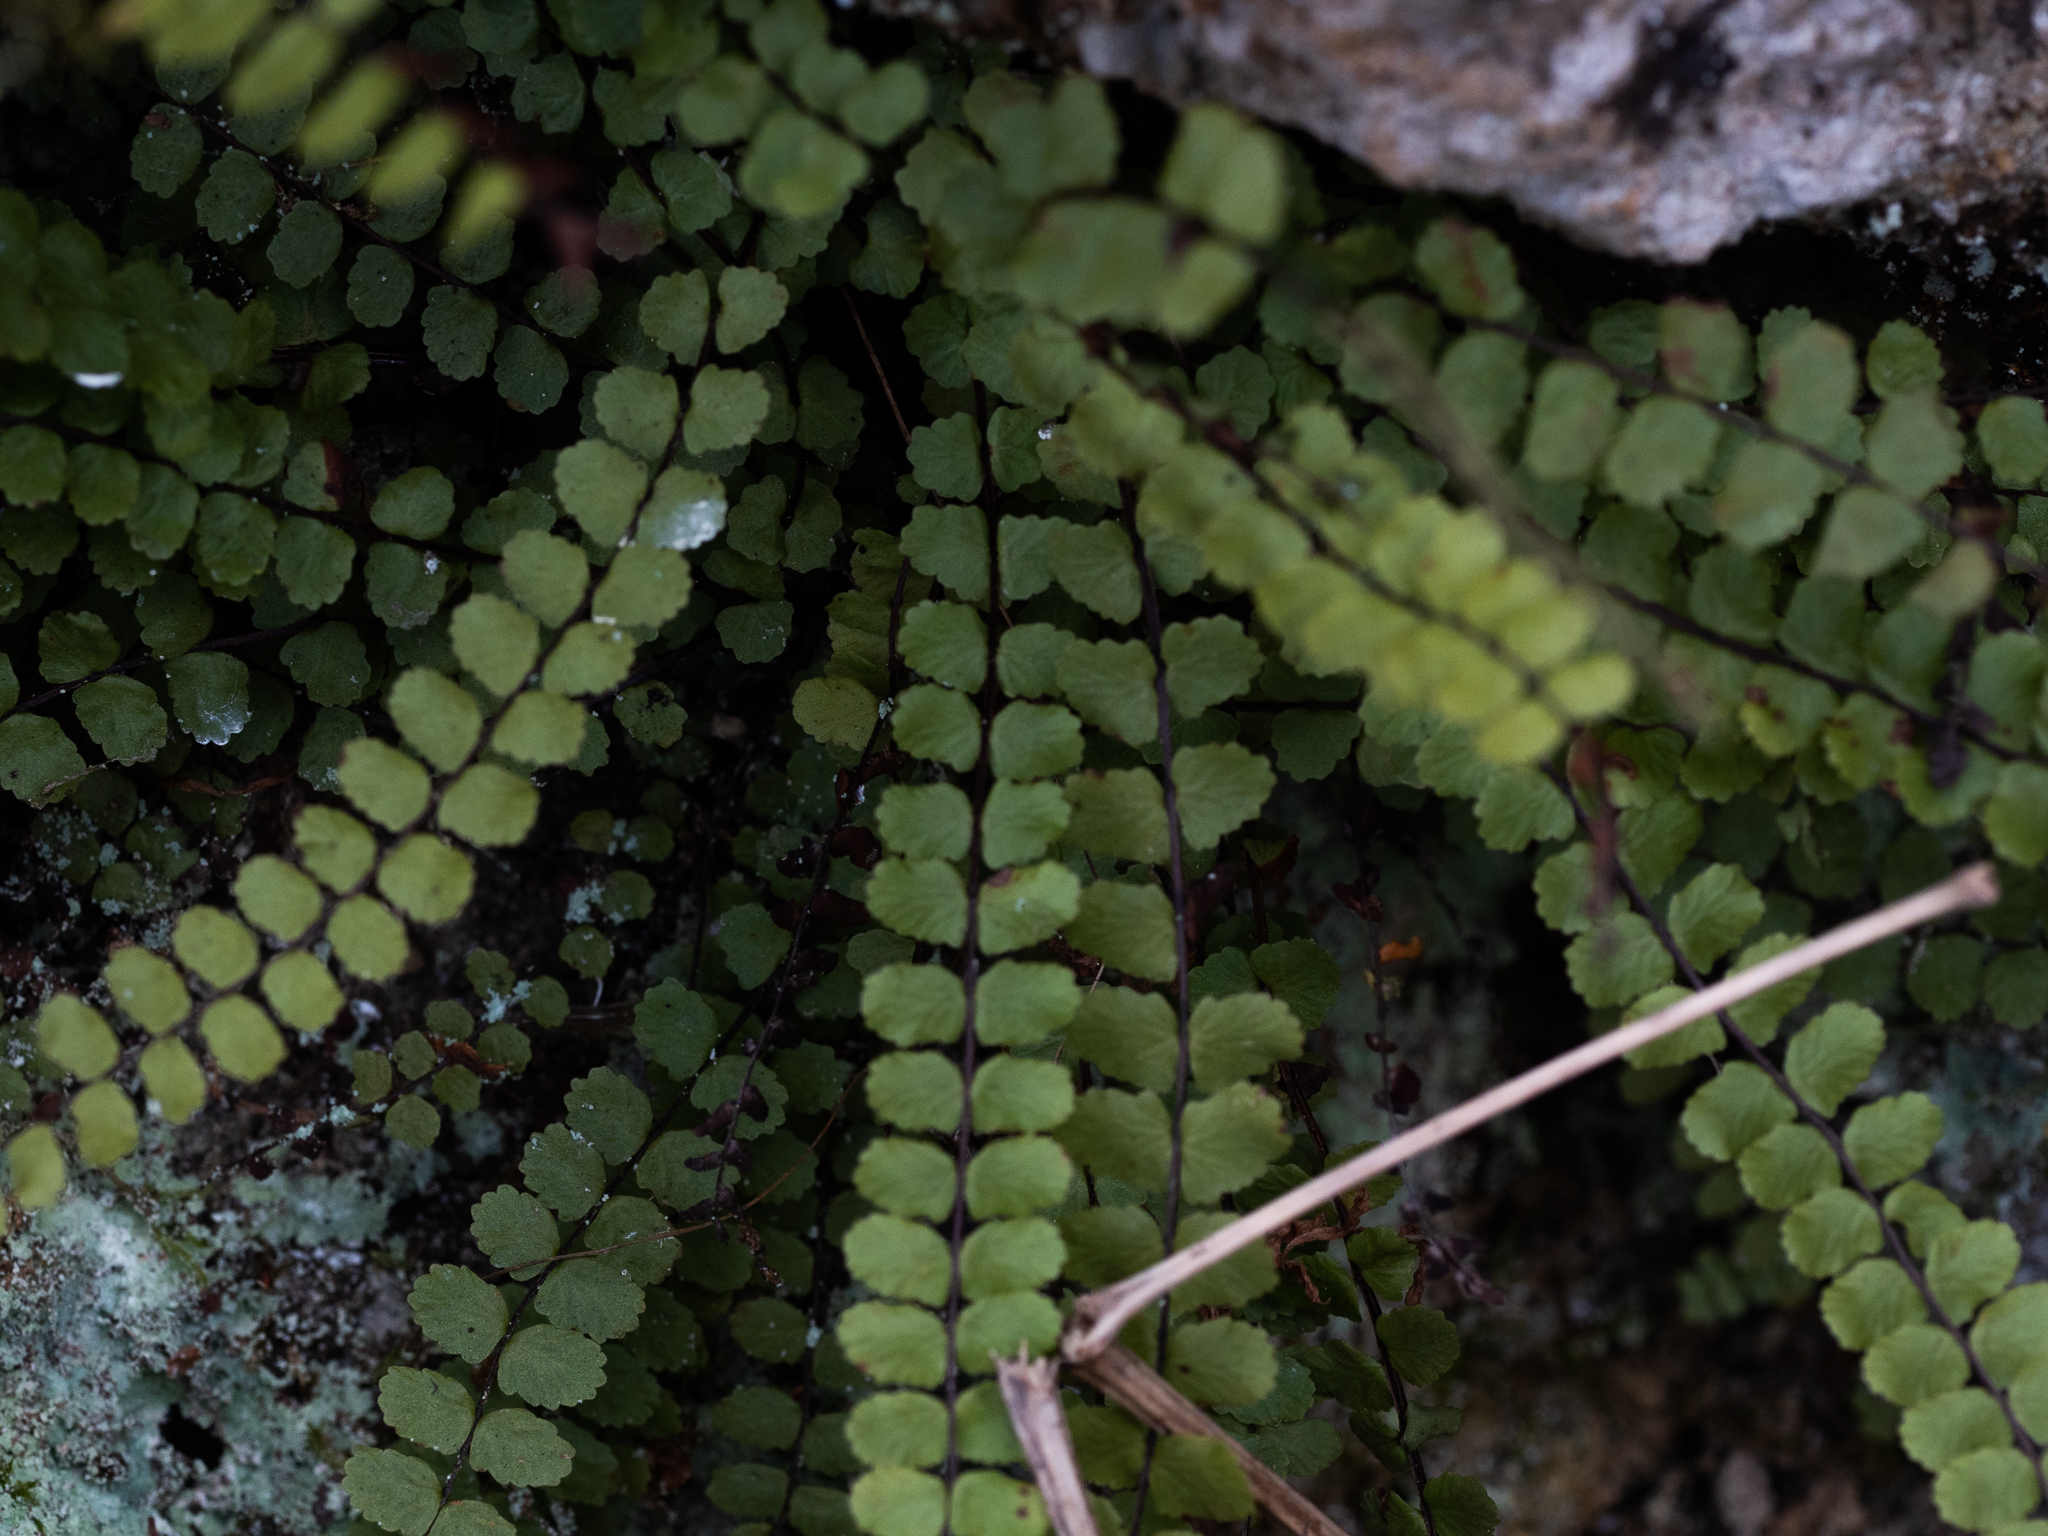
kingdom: Plantae
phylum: Tracheophyta
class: Polypodiopsida
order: Polypodiales
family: Aspleniaceae
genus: Asplenium
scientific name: Asplenium trichomanes
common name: Maidenhair spleenwort
